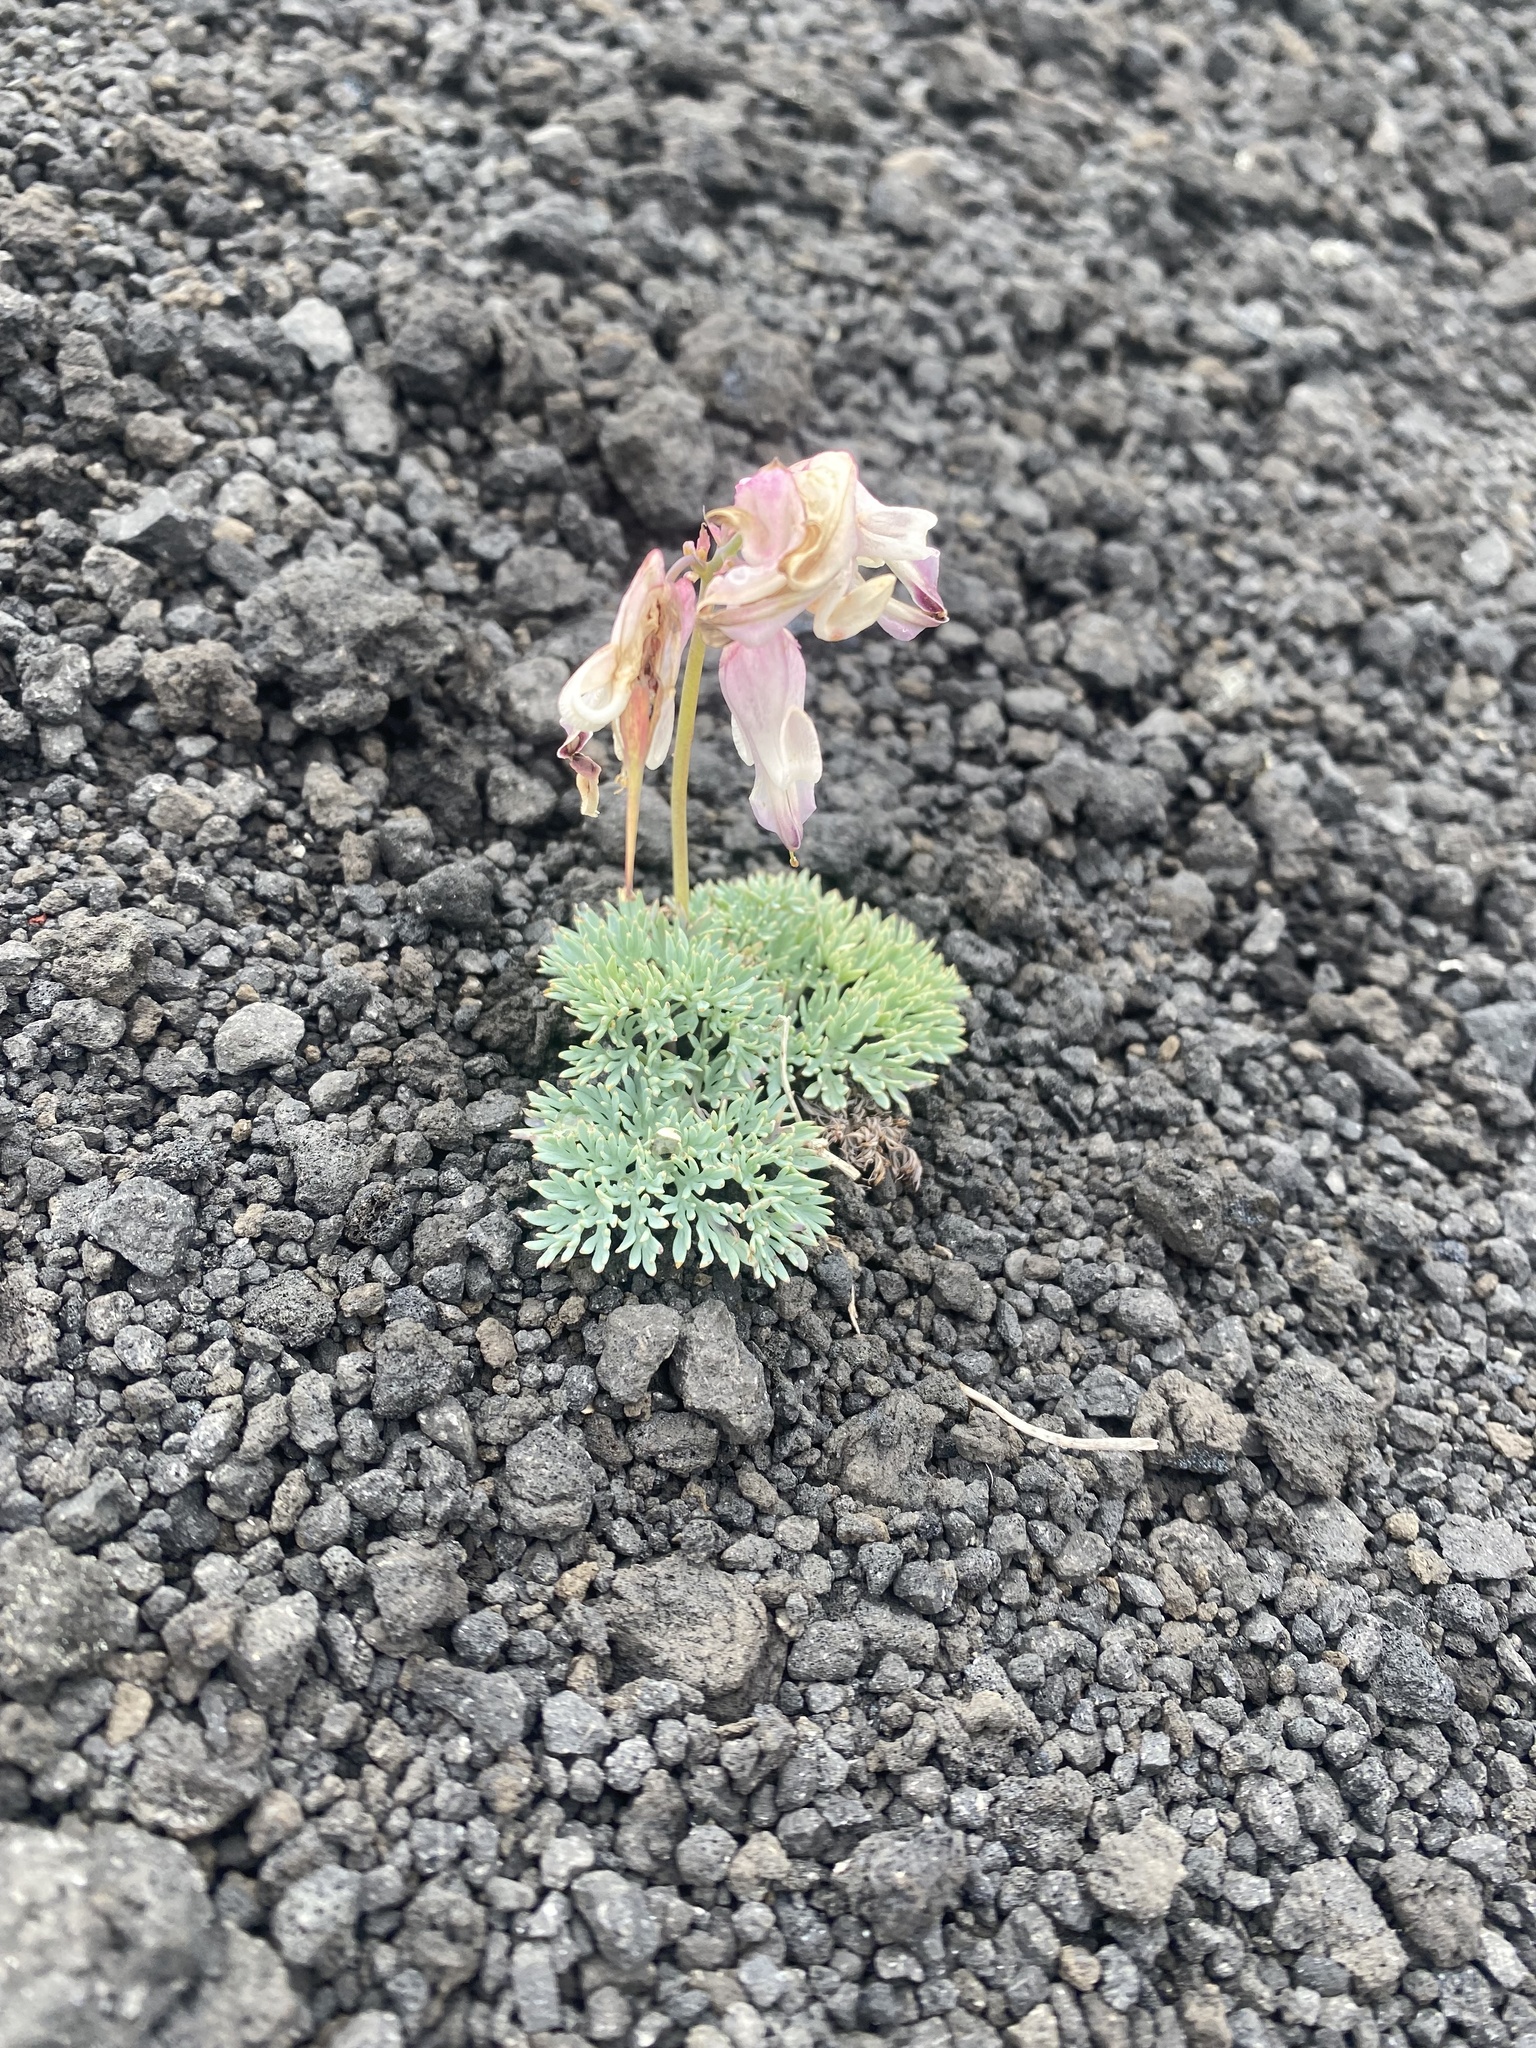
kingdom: Plantae
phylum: Tracheophyta
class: Magnoliopsida
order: Ranunculales
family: Papaveraceae
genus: Dicentra
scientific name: Dicentra peregrina
